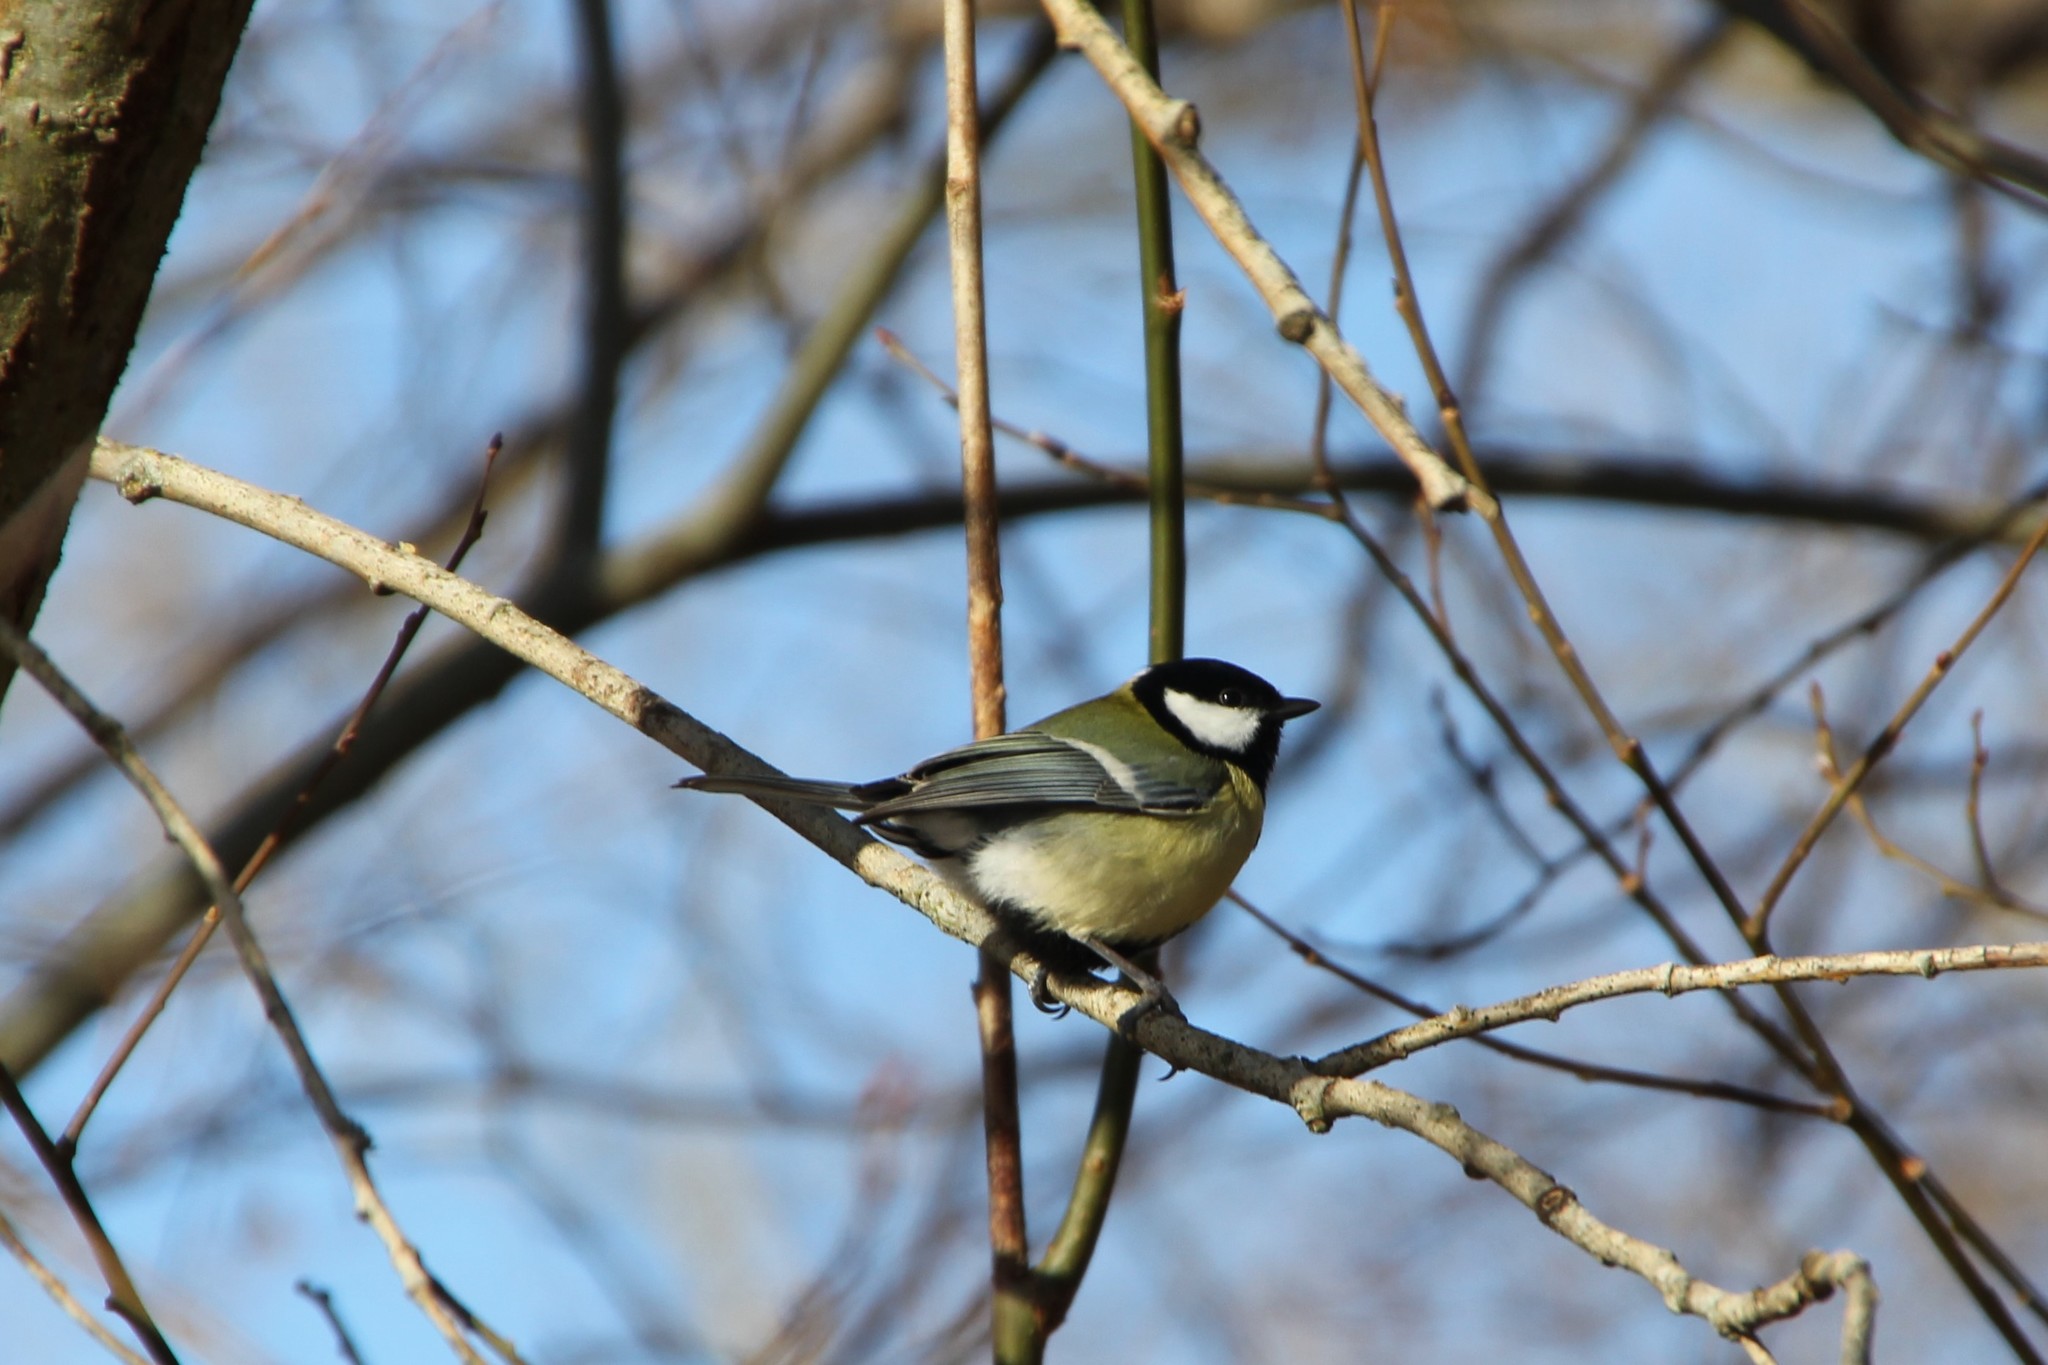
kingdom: Animalia
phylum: Chordata
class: Aves
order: Passeriformes
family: Paridae
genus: Parus
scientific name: Parus major
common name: Great tit
